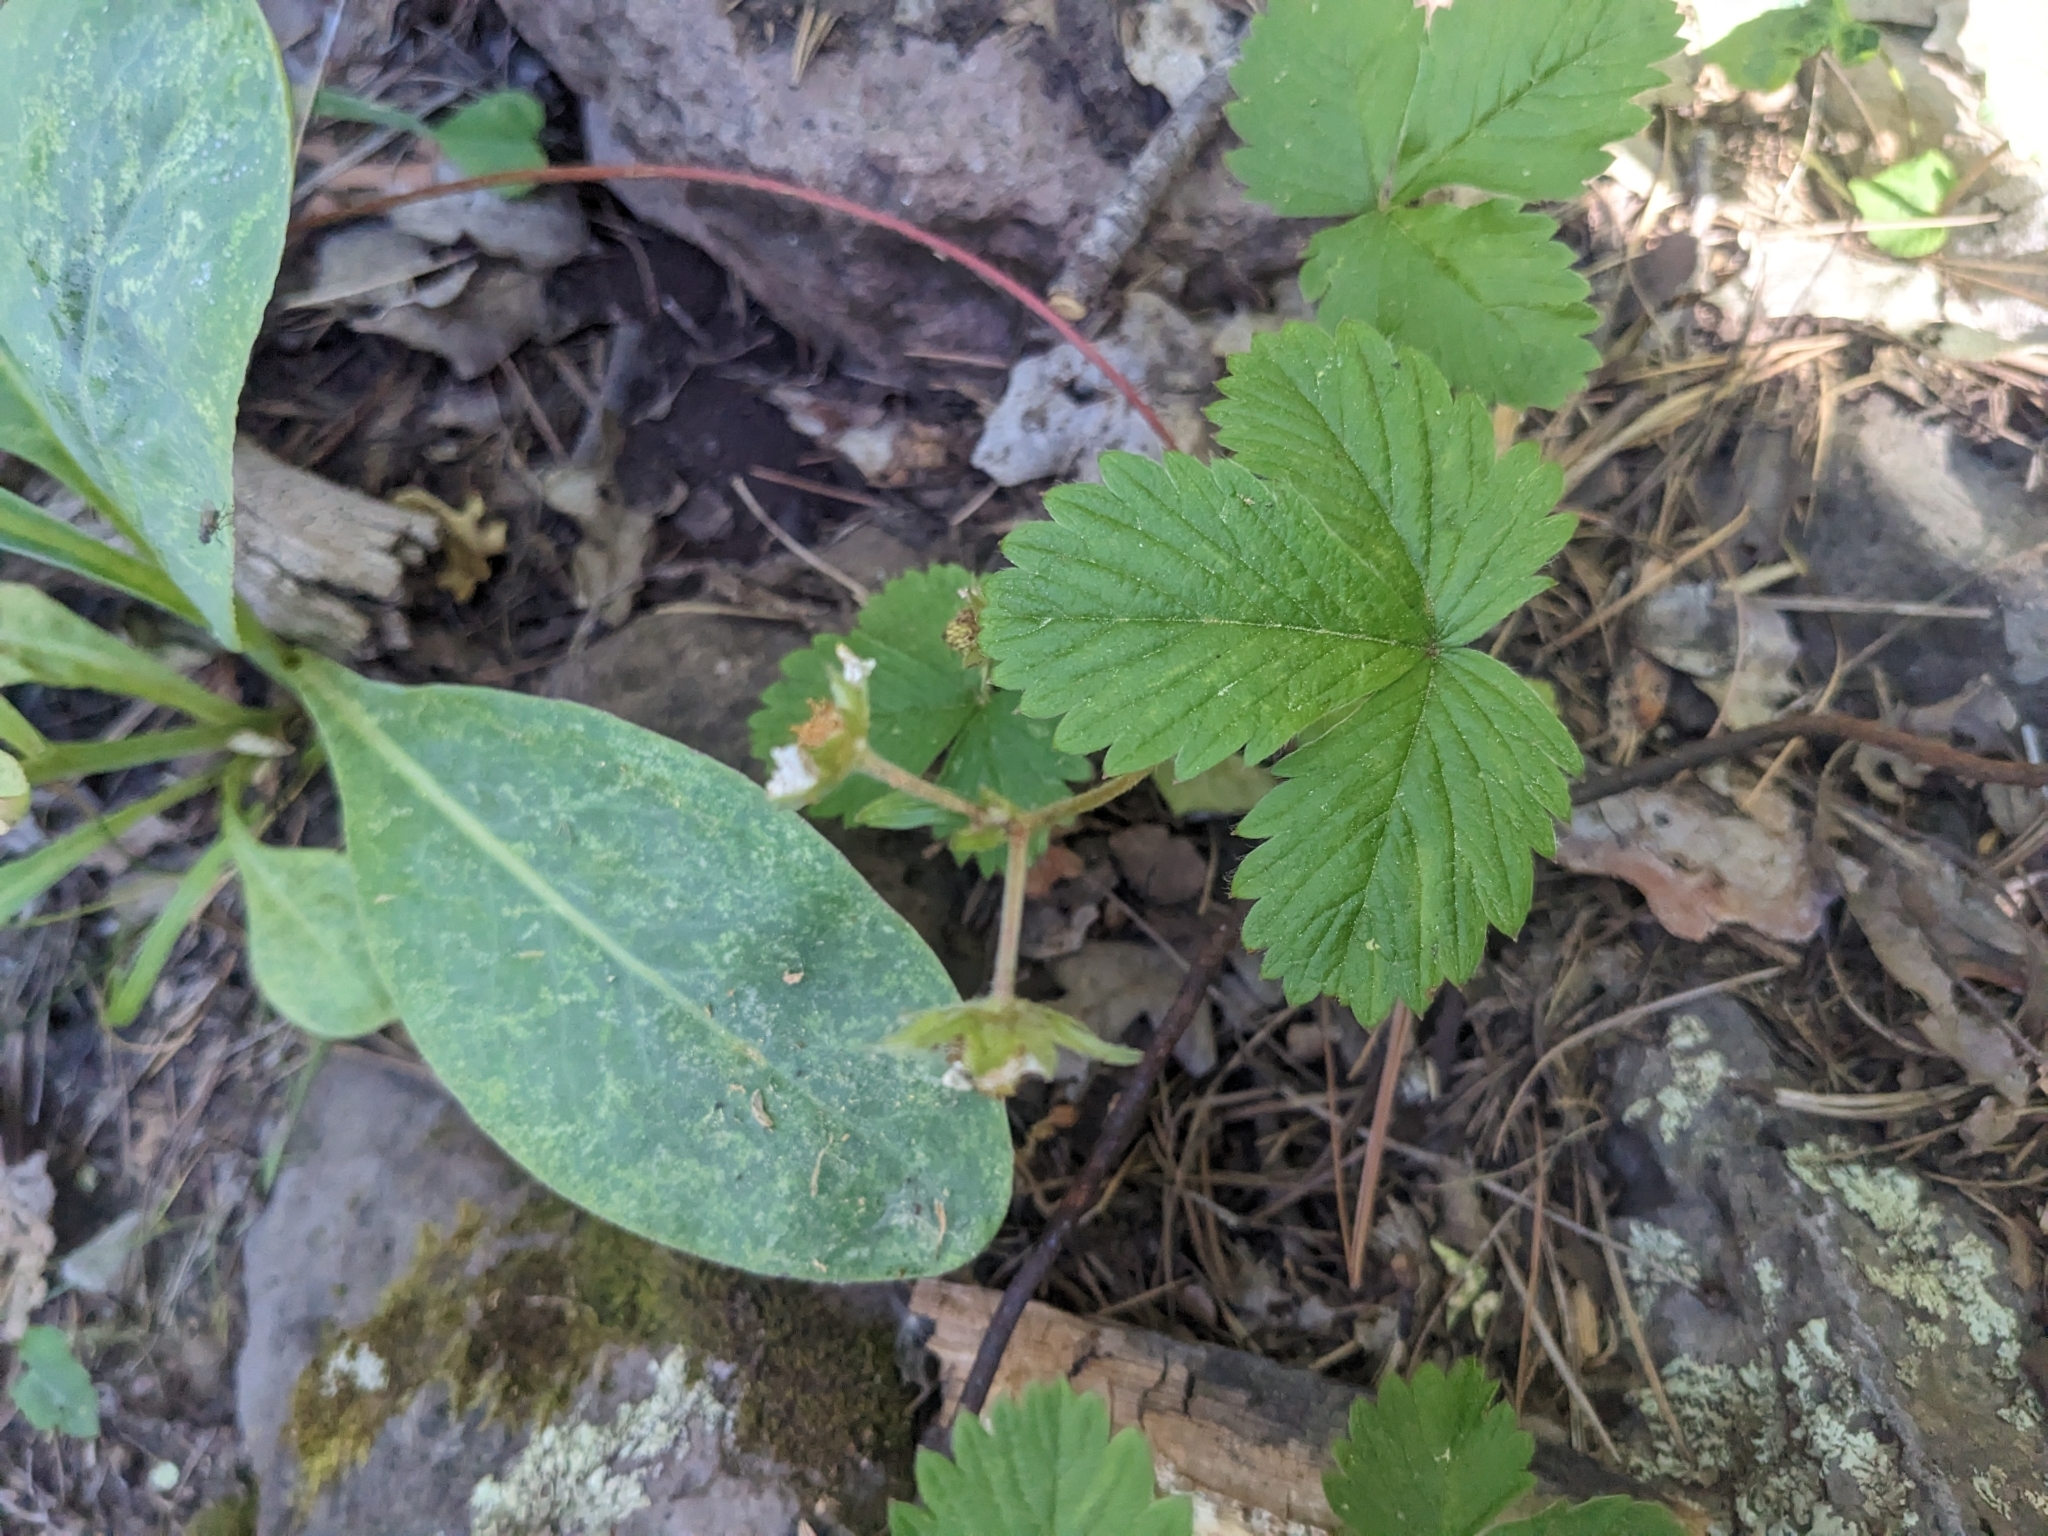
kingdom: Plantae
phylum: Tracheophyta
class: Magnoliopsida
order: Rosales
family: Rosaceae
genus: Fragaria
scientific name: Fragaria vesca
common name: Wild strawberry
